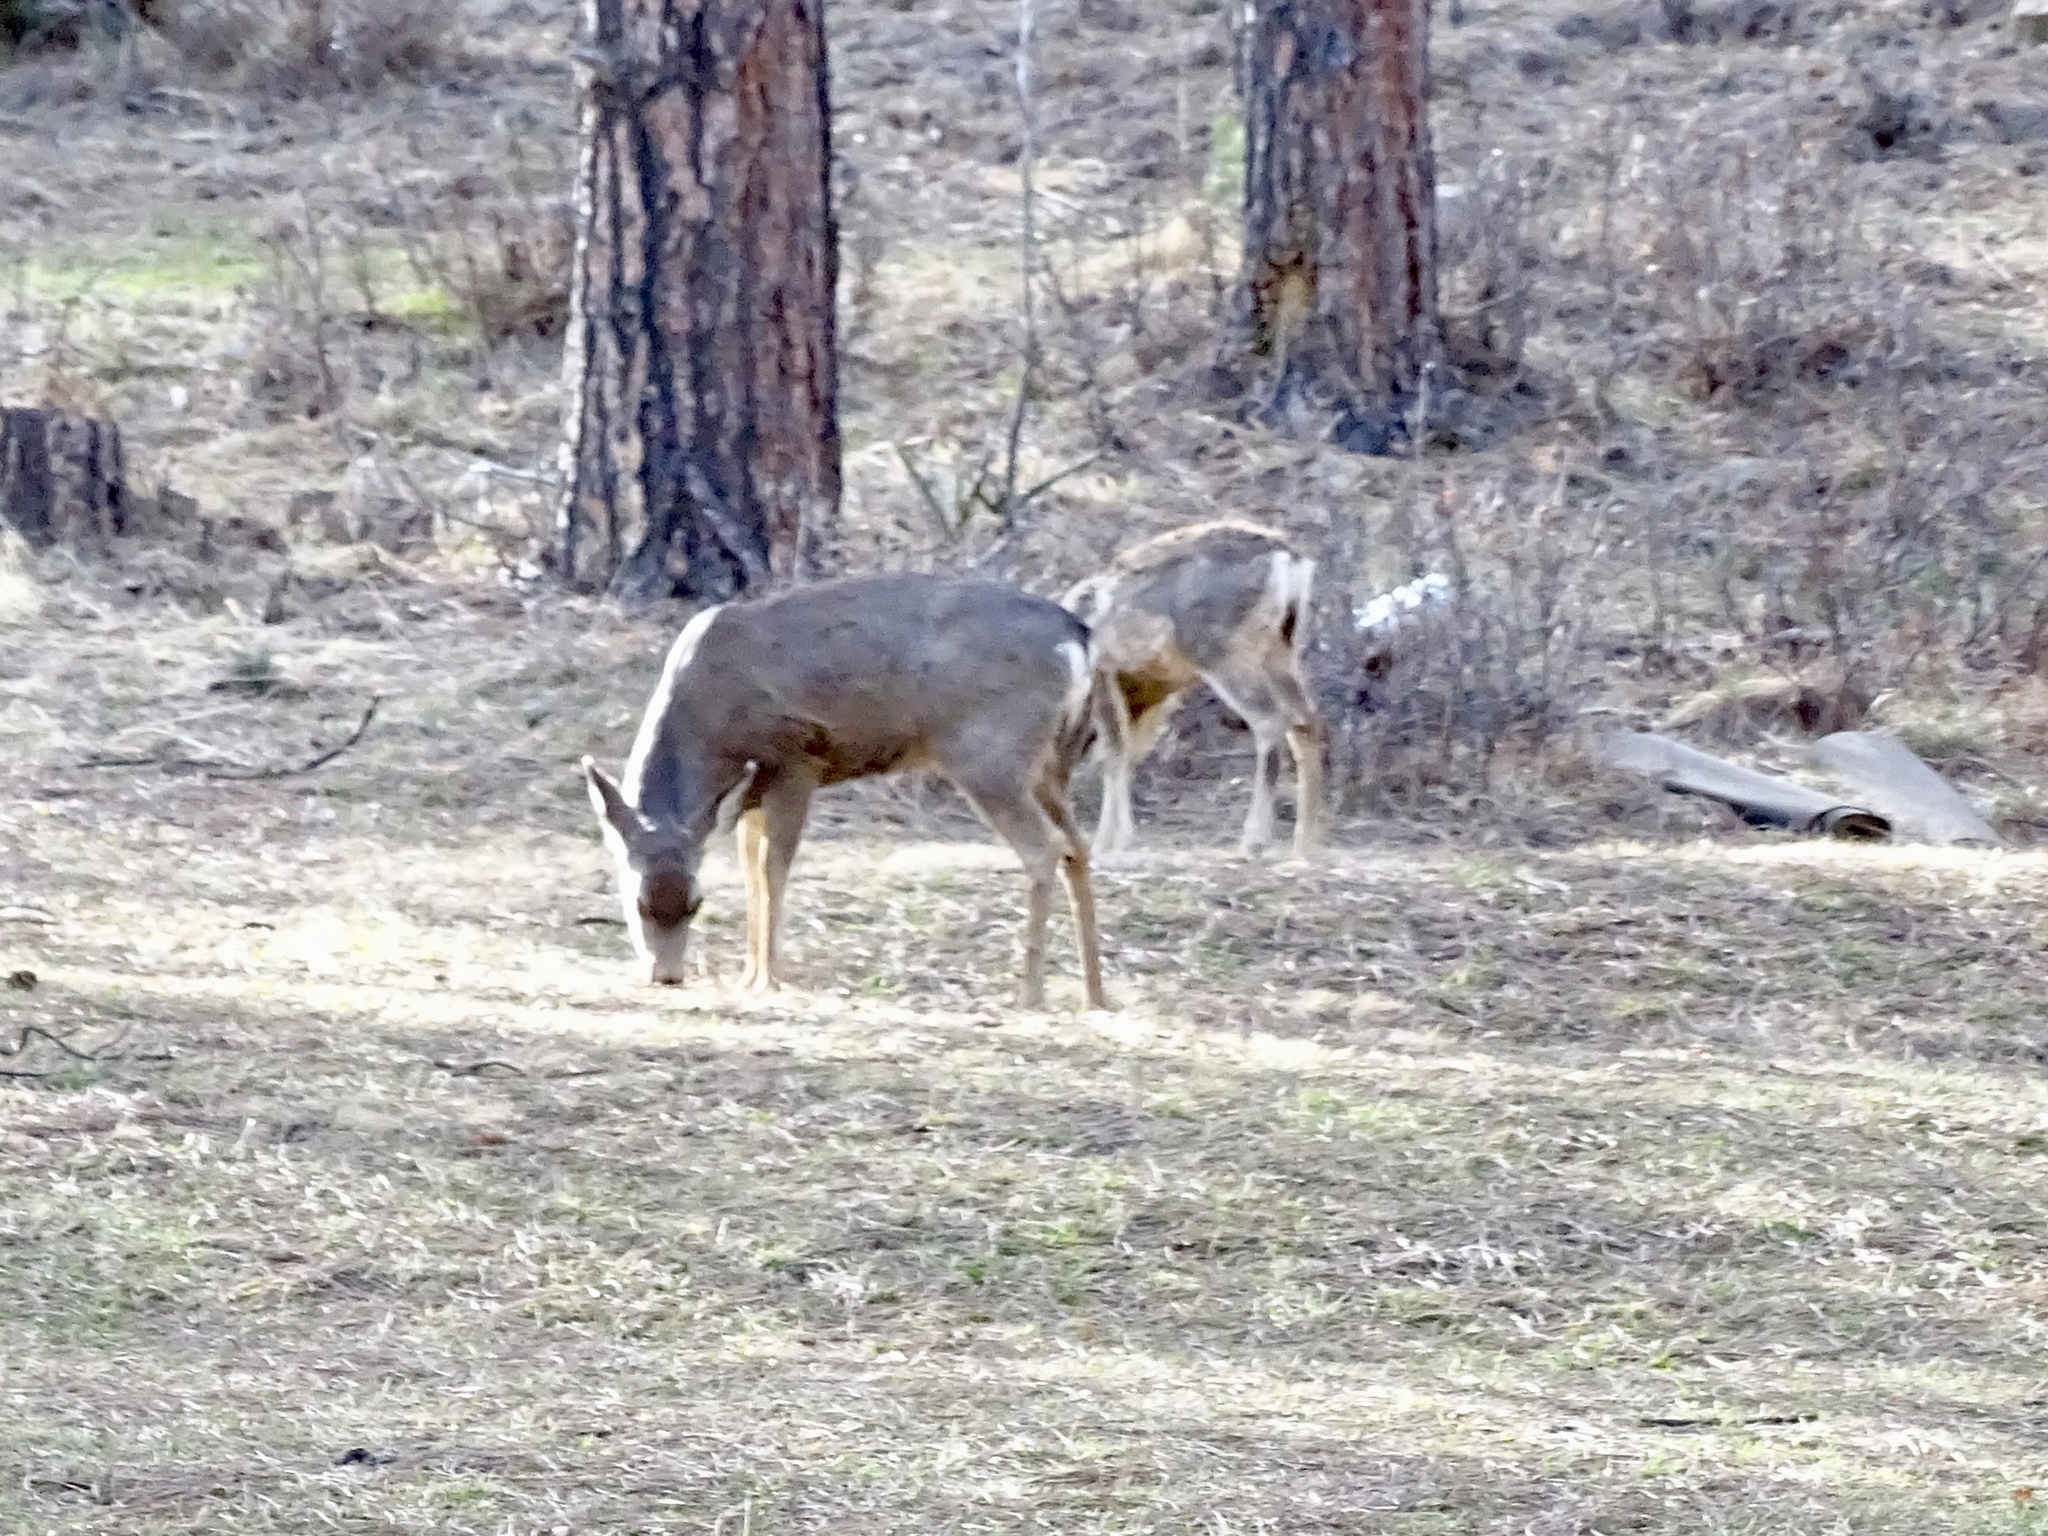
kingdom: Animalia
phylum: Chordata
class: Mammalia
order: Artiodactyla
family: Cervidae
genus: Odocoileus
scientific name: Odocoileus hemionus
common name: Mule deer
